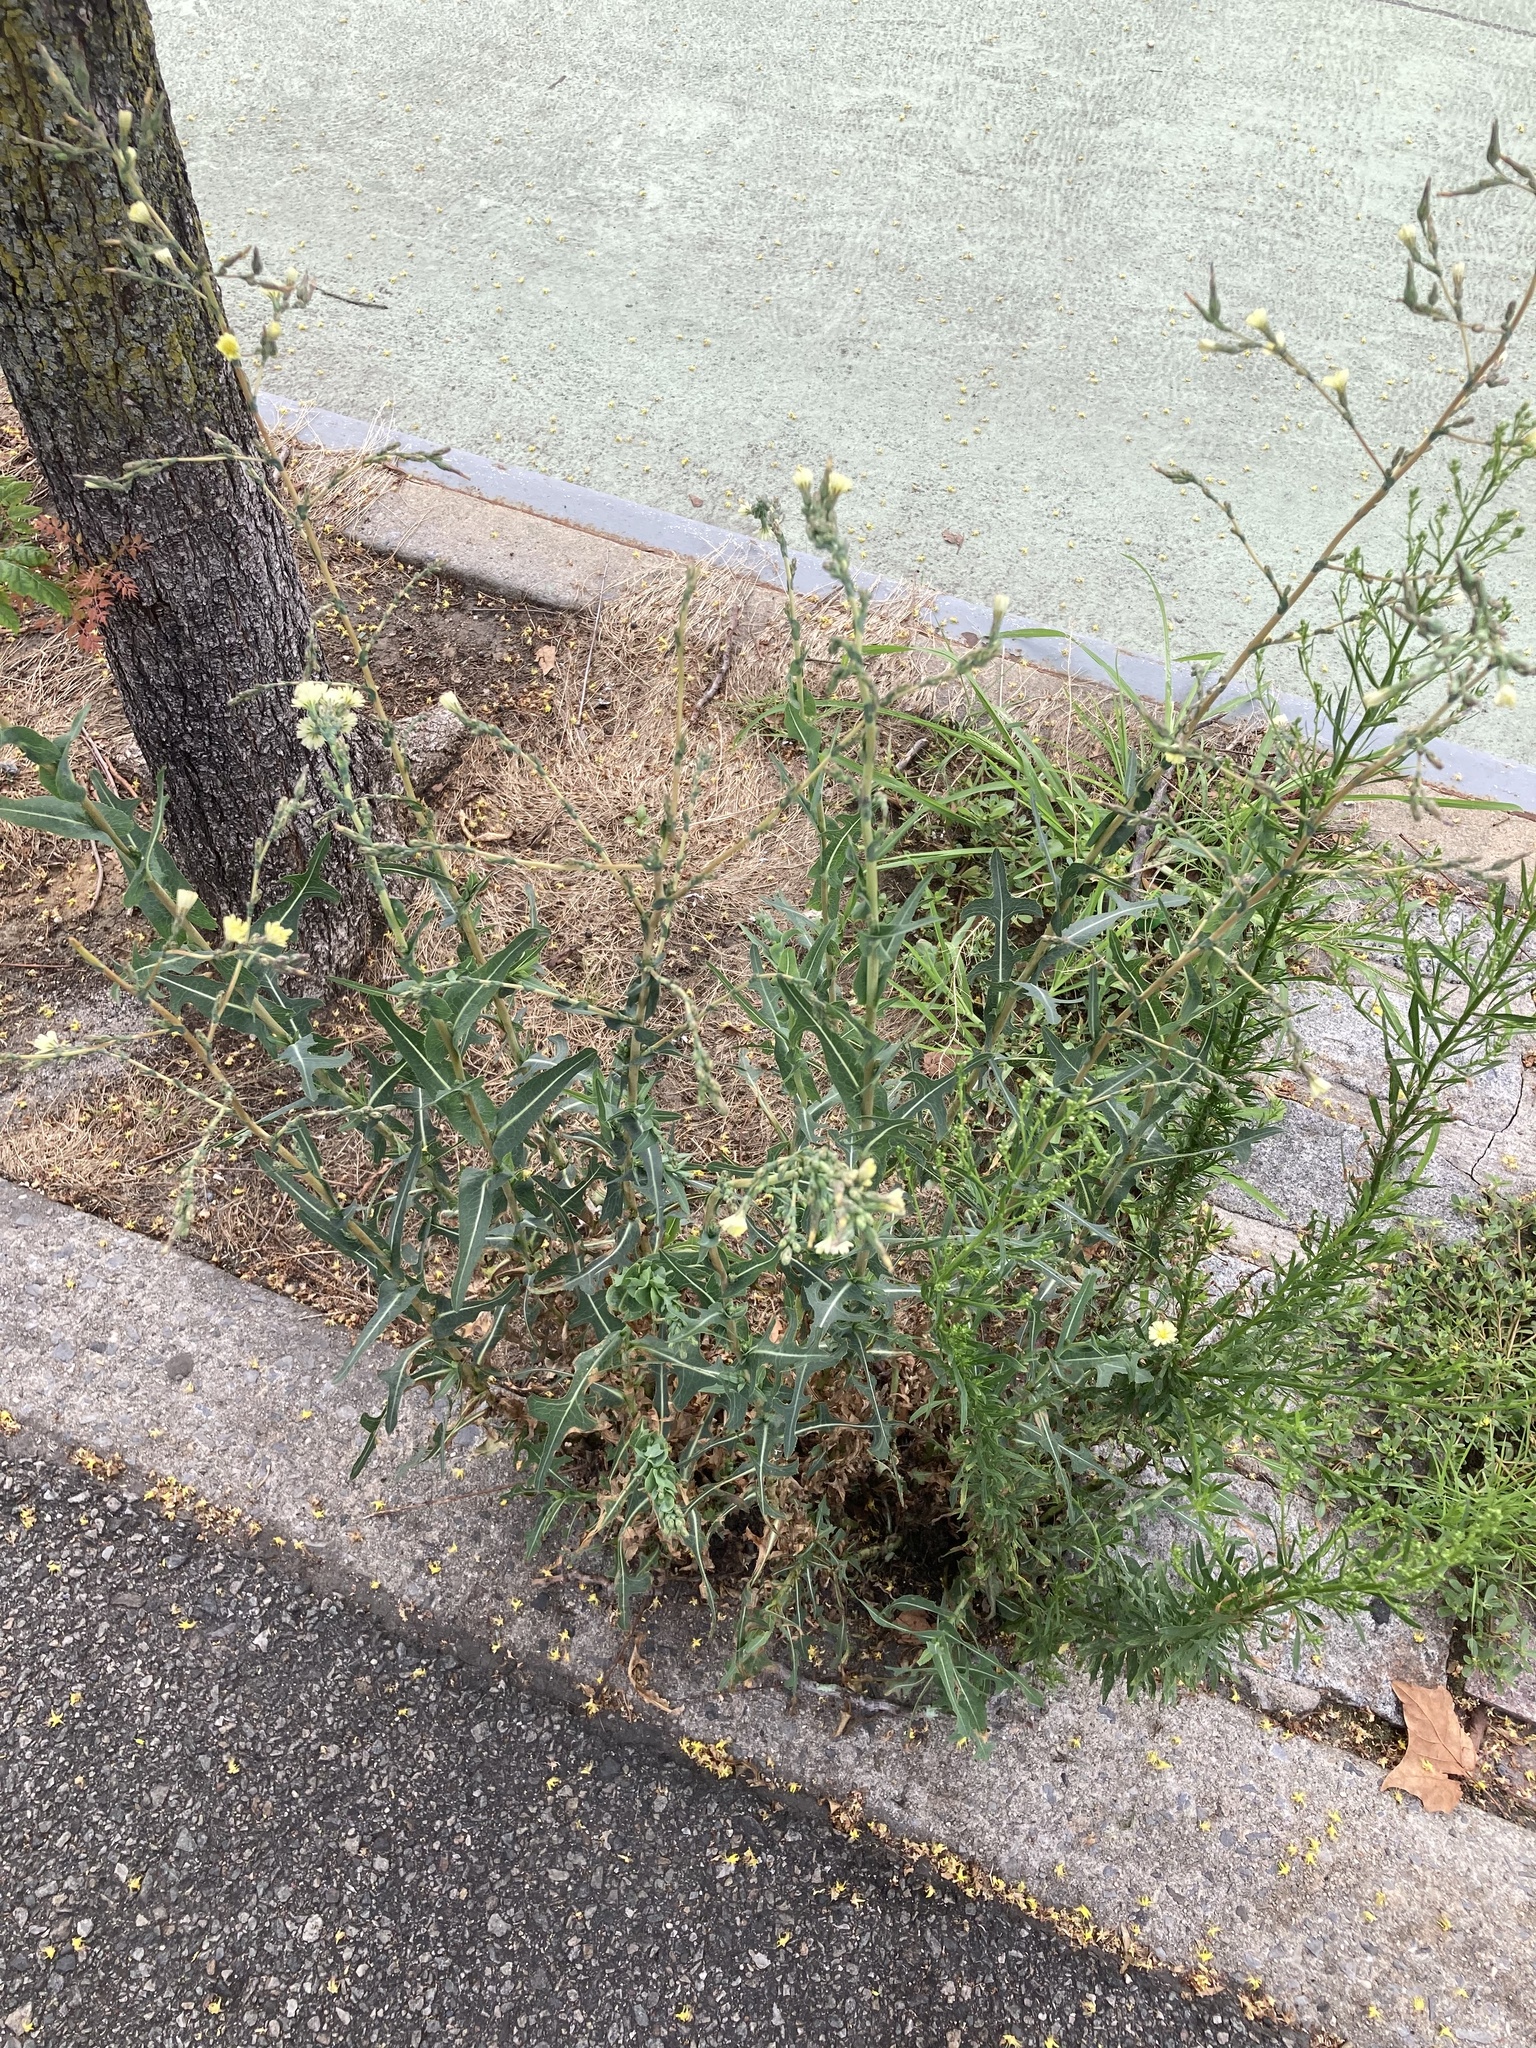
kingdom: Plantae
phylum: Tracheophyta
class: Magnoliopsida
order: Asterales
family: Asteraceae
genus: Lactuca
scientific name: Lactuca serriola
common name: Prickly lettuce
